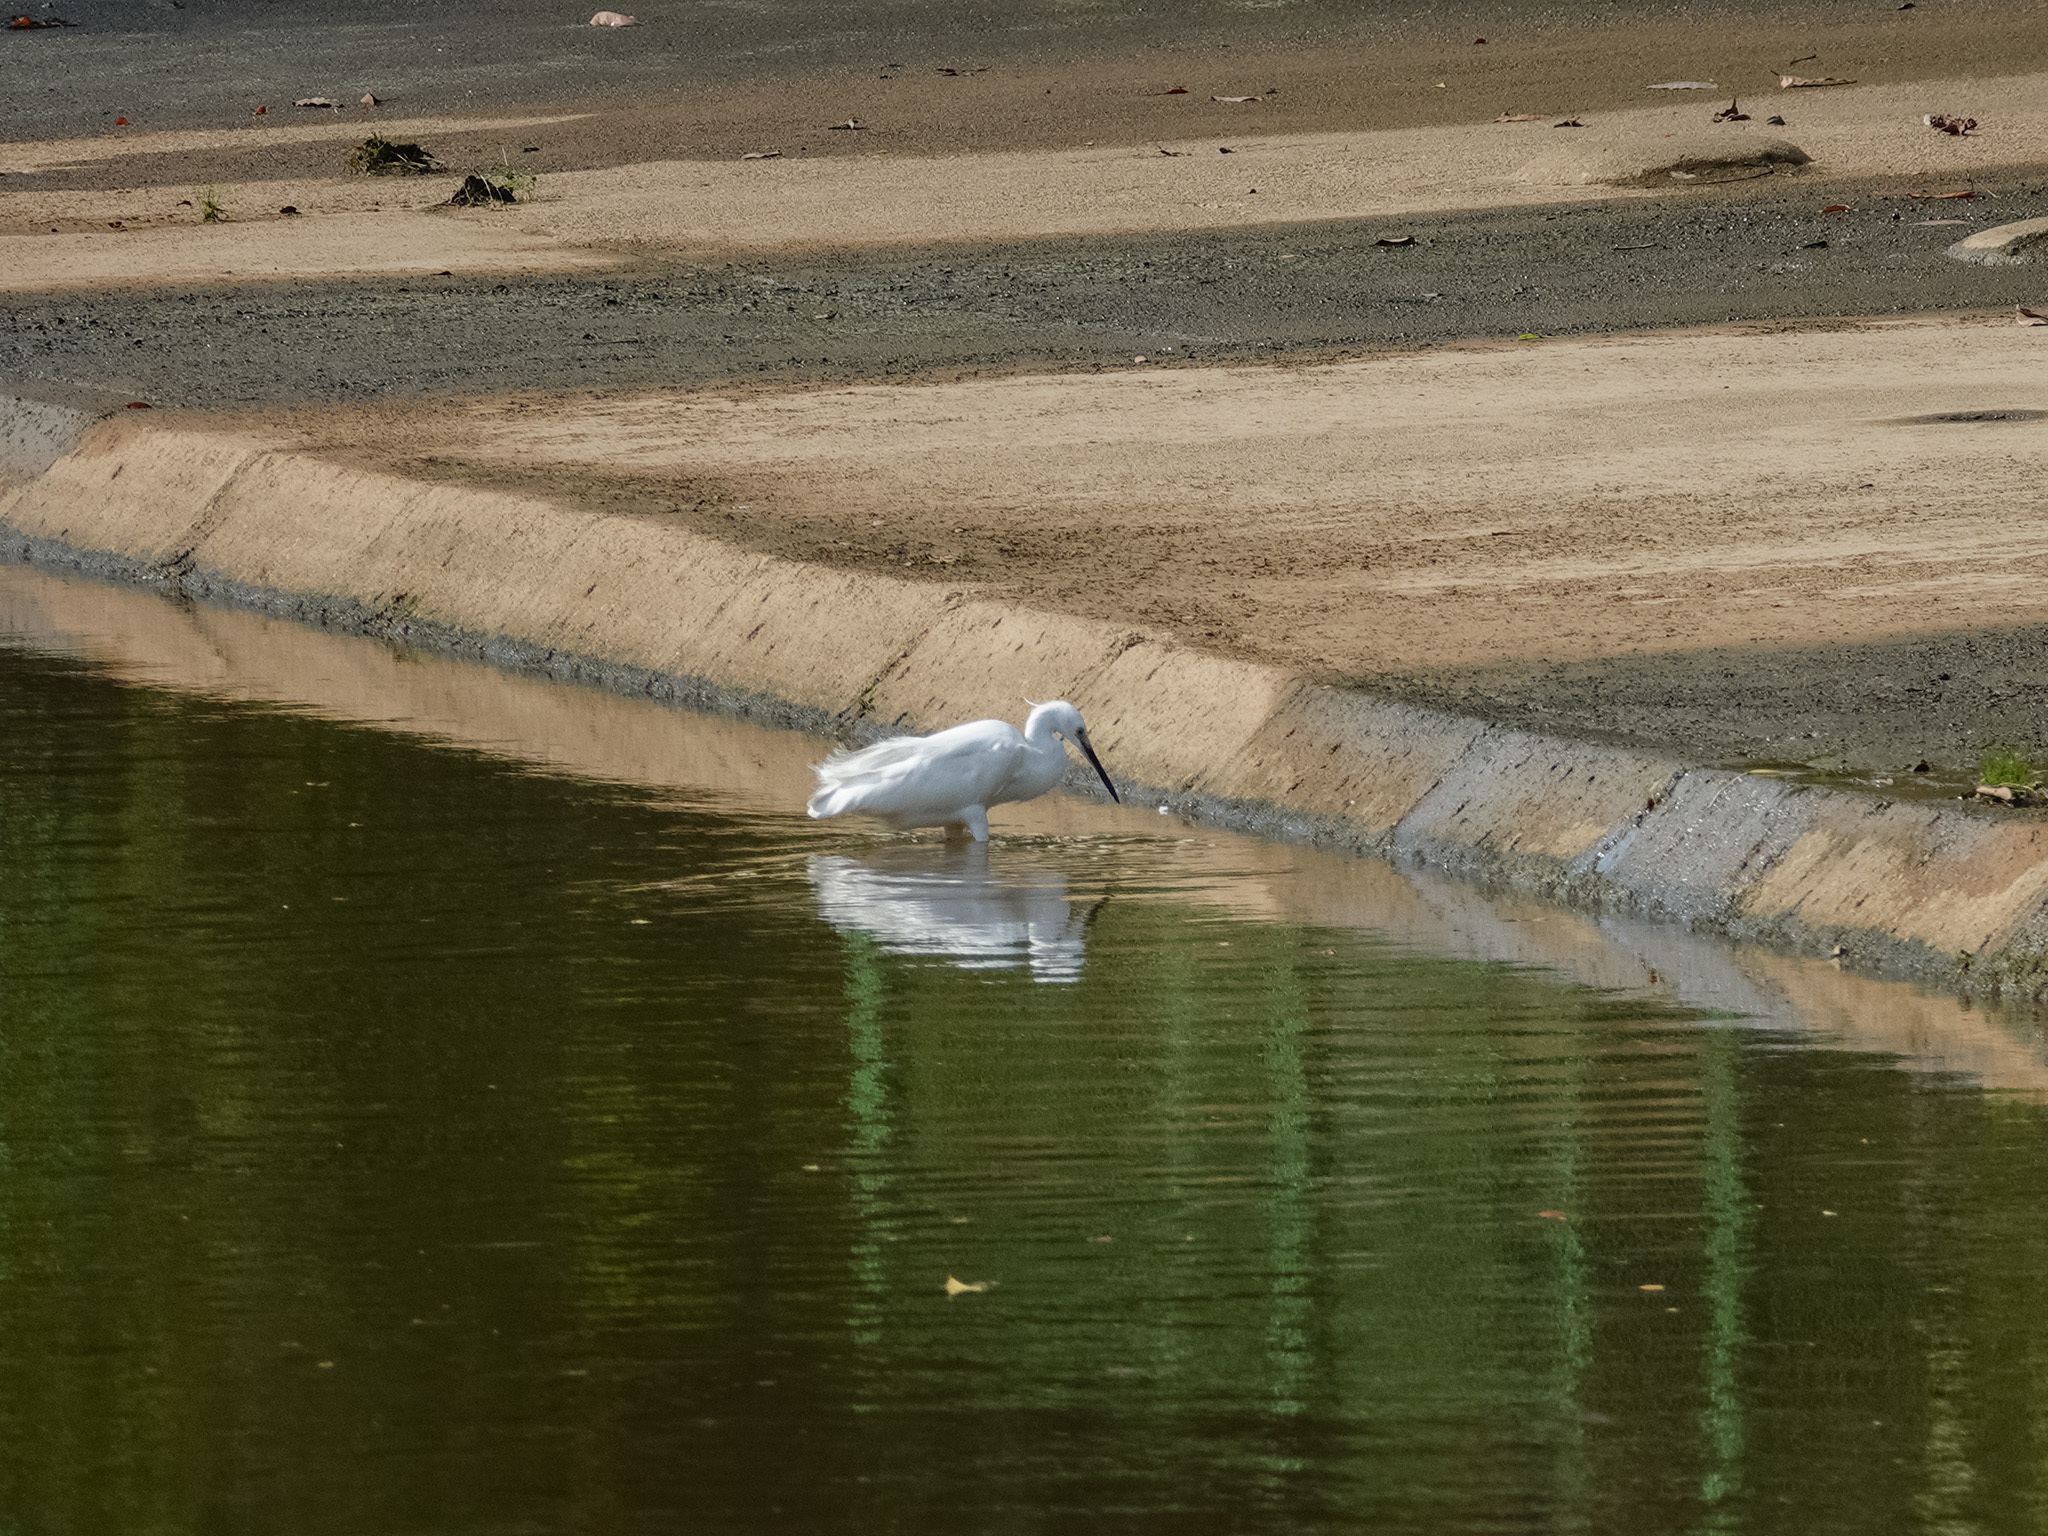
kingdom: Animalia
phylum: Chordata
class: Aves
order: Pelecaniformes
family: Ardeidae
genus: Egretta
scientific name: Egretta garzetta
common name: Little egret
